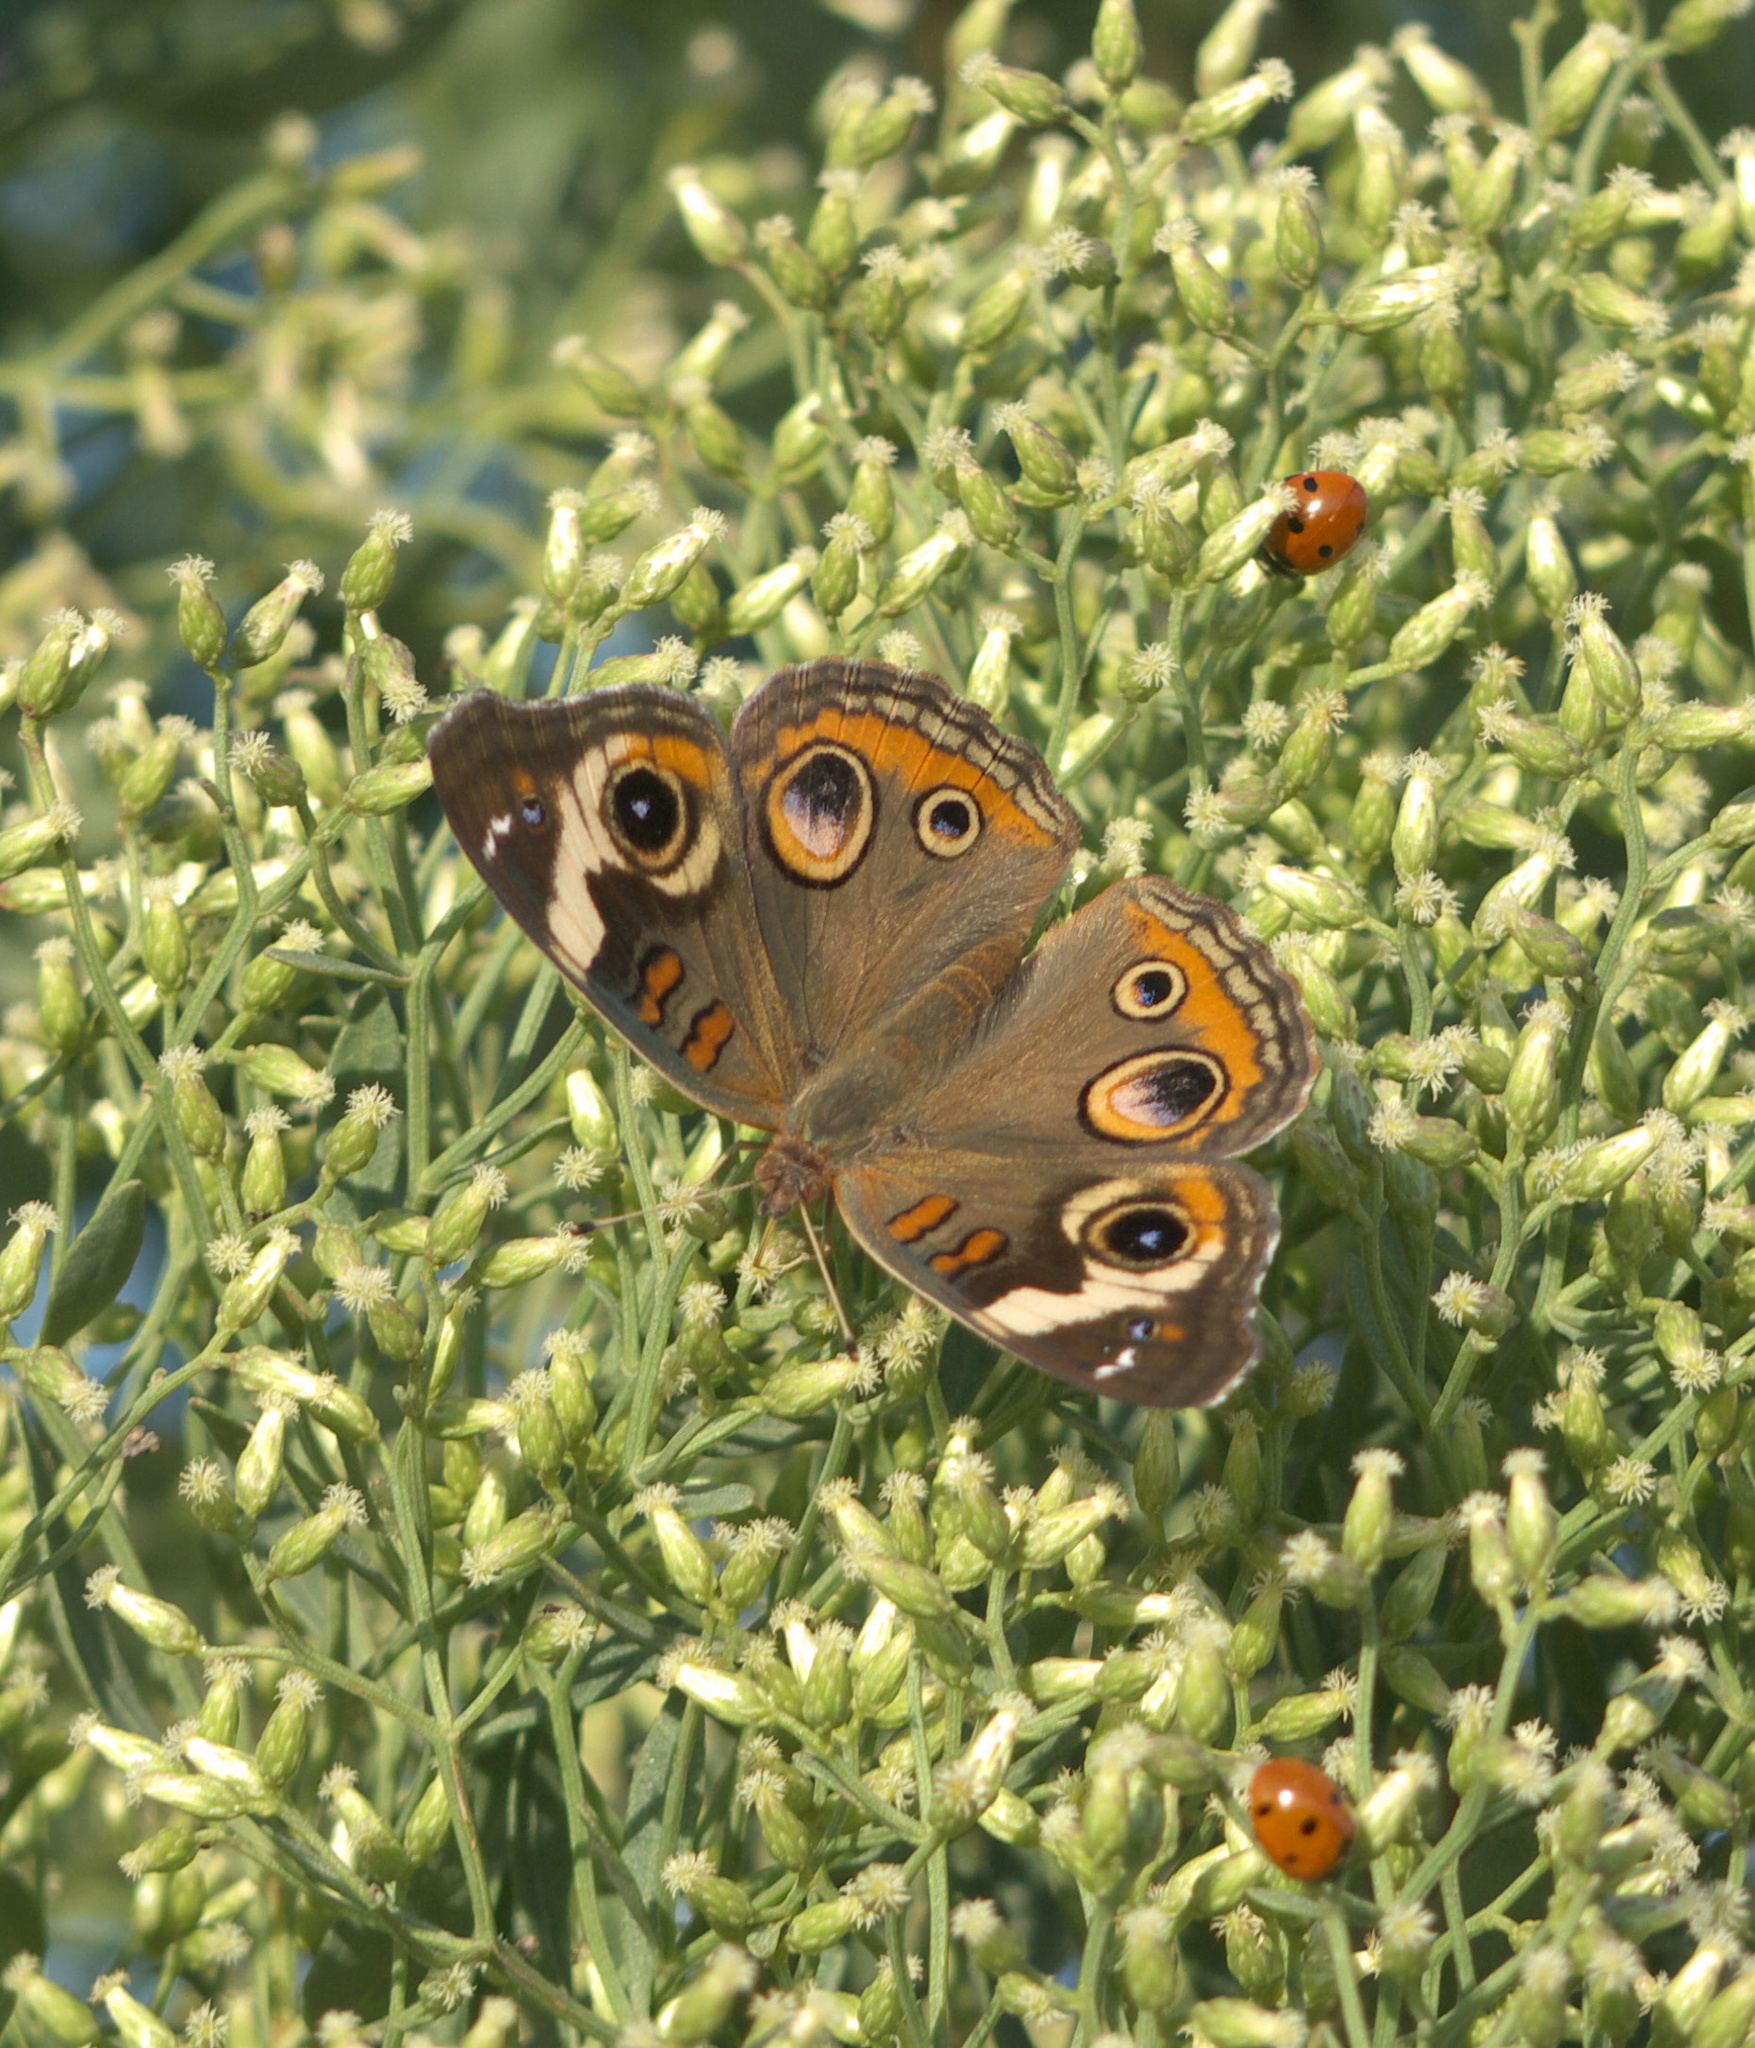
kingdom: Animalia
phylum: Arthropoda
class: Insecta
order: Lepidoptera
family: Nymphalidae
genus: Junonia
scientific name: Junonia coenia
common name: Common buckeye
